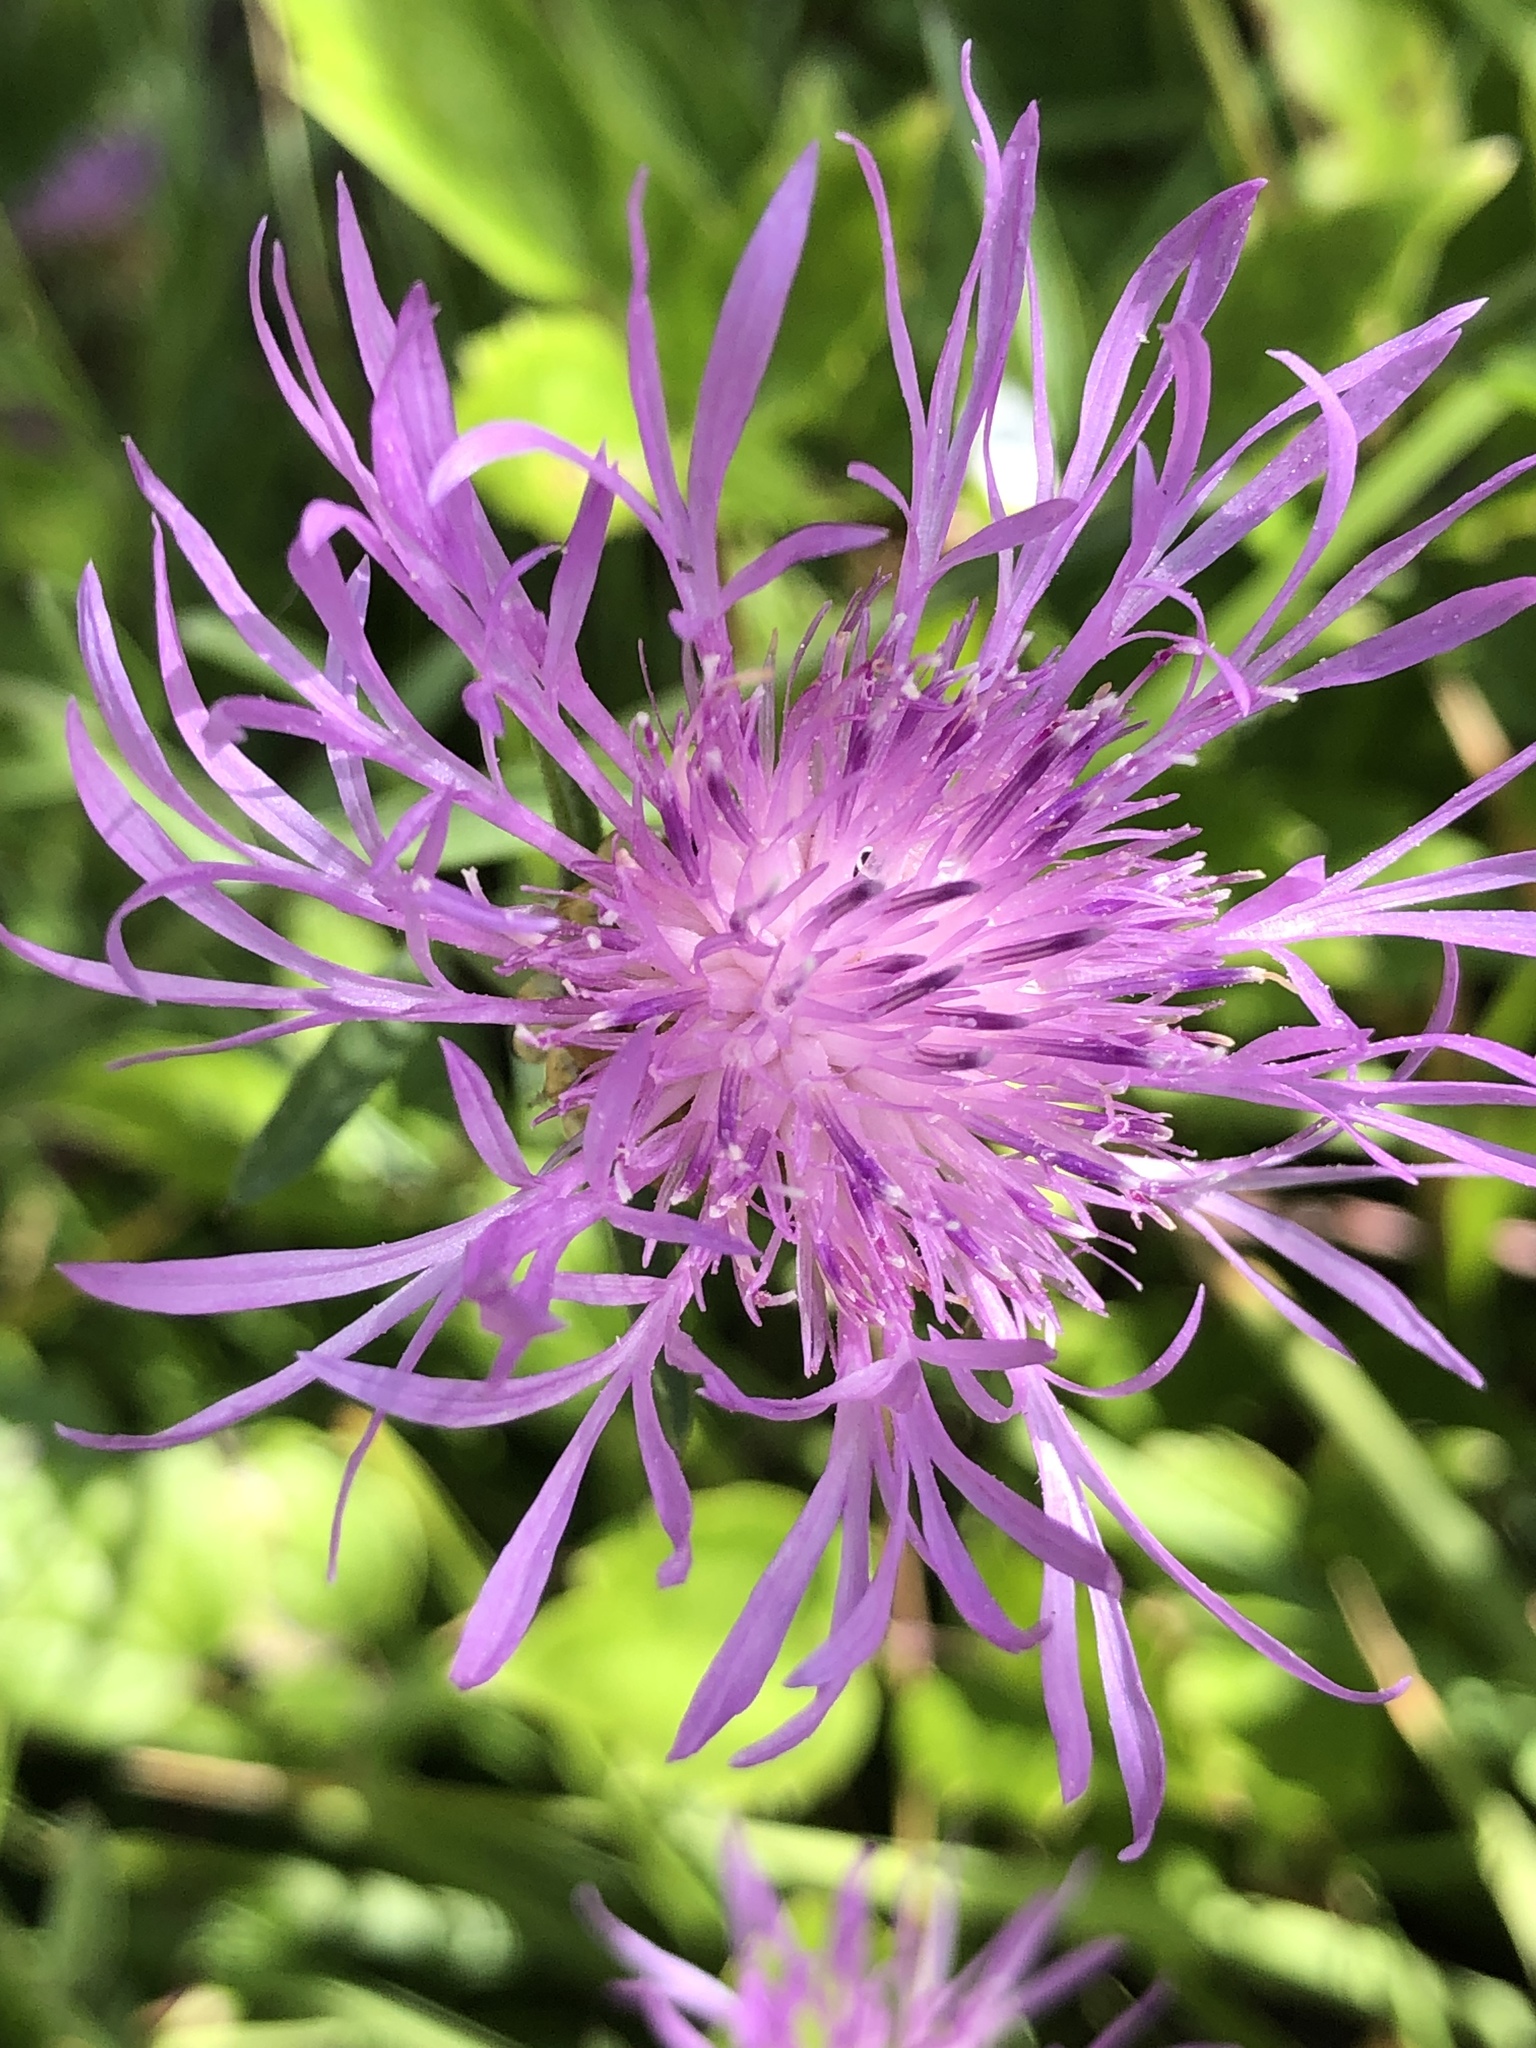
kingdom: Plantae
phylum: Tracheophyta
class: Magnoliopsida
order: Asterales
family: Asteraceae
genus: Centaurea
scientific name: Centaurea jacea
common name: Brown knapweed
